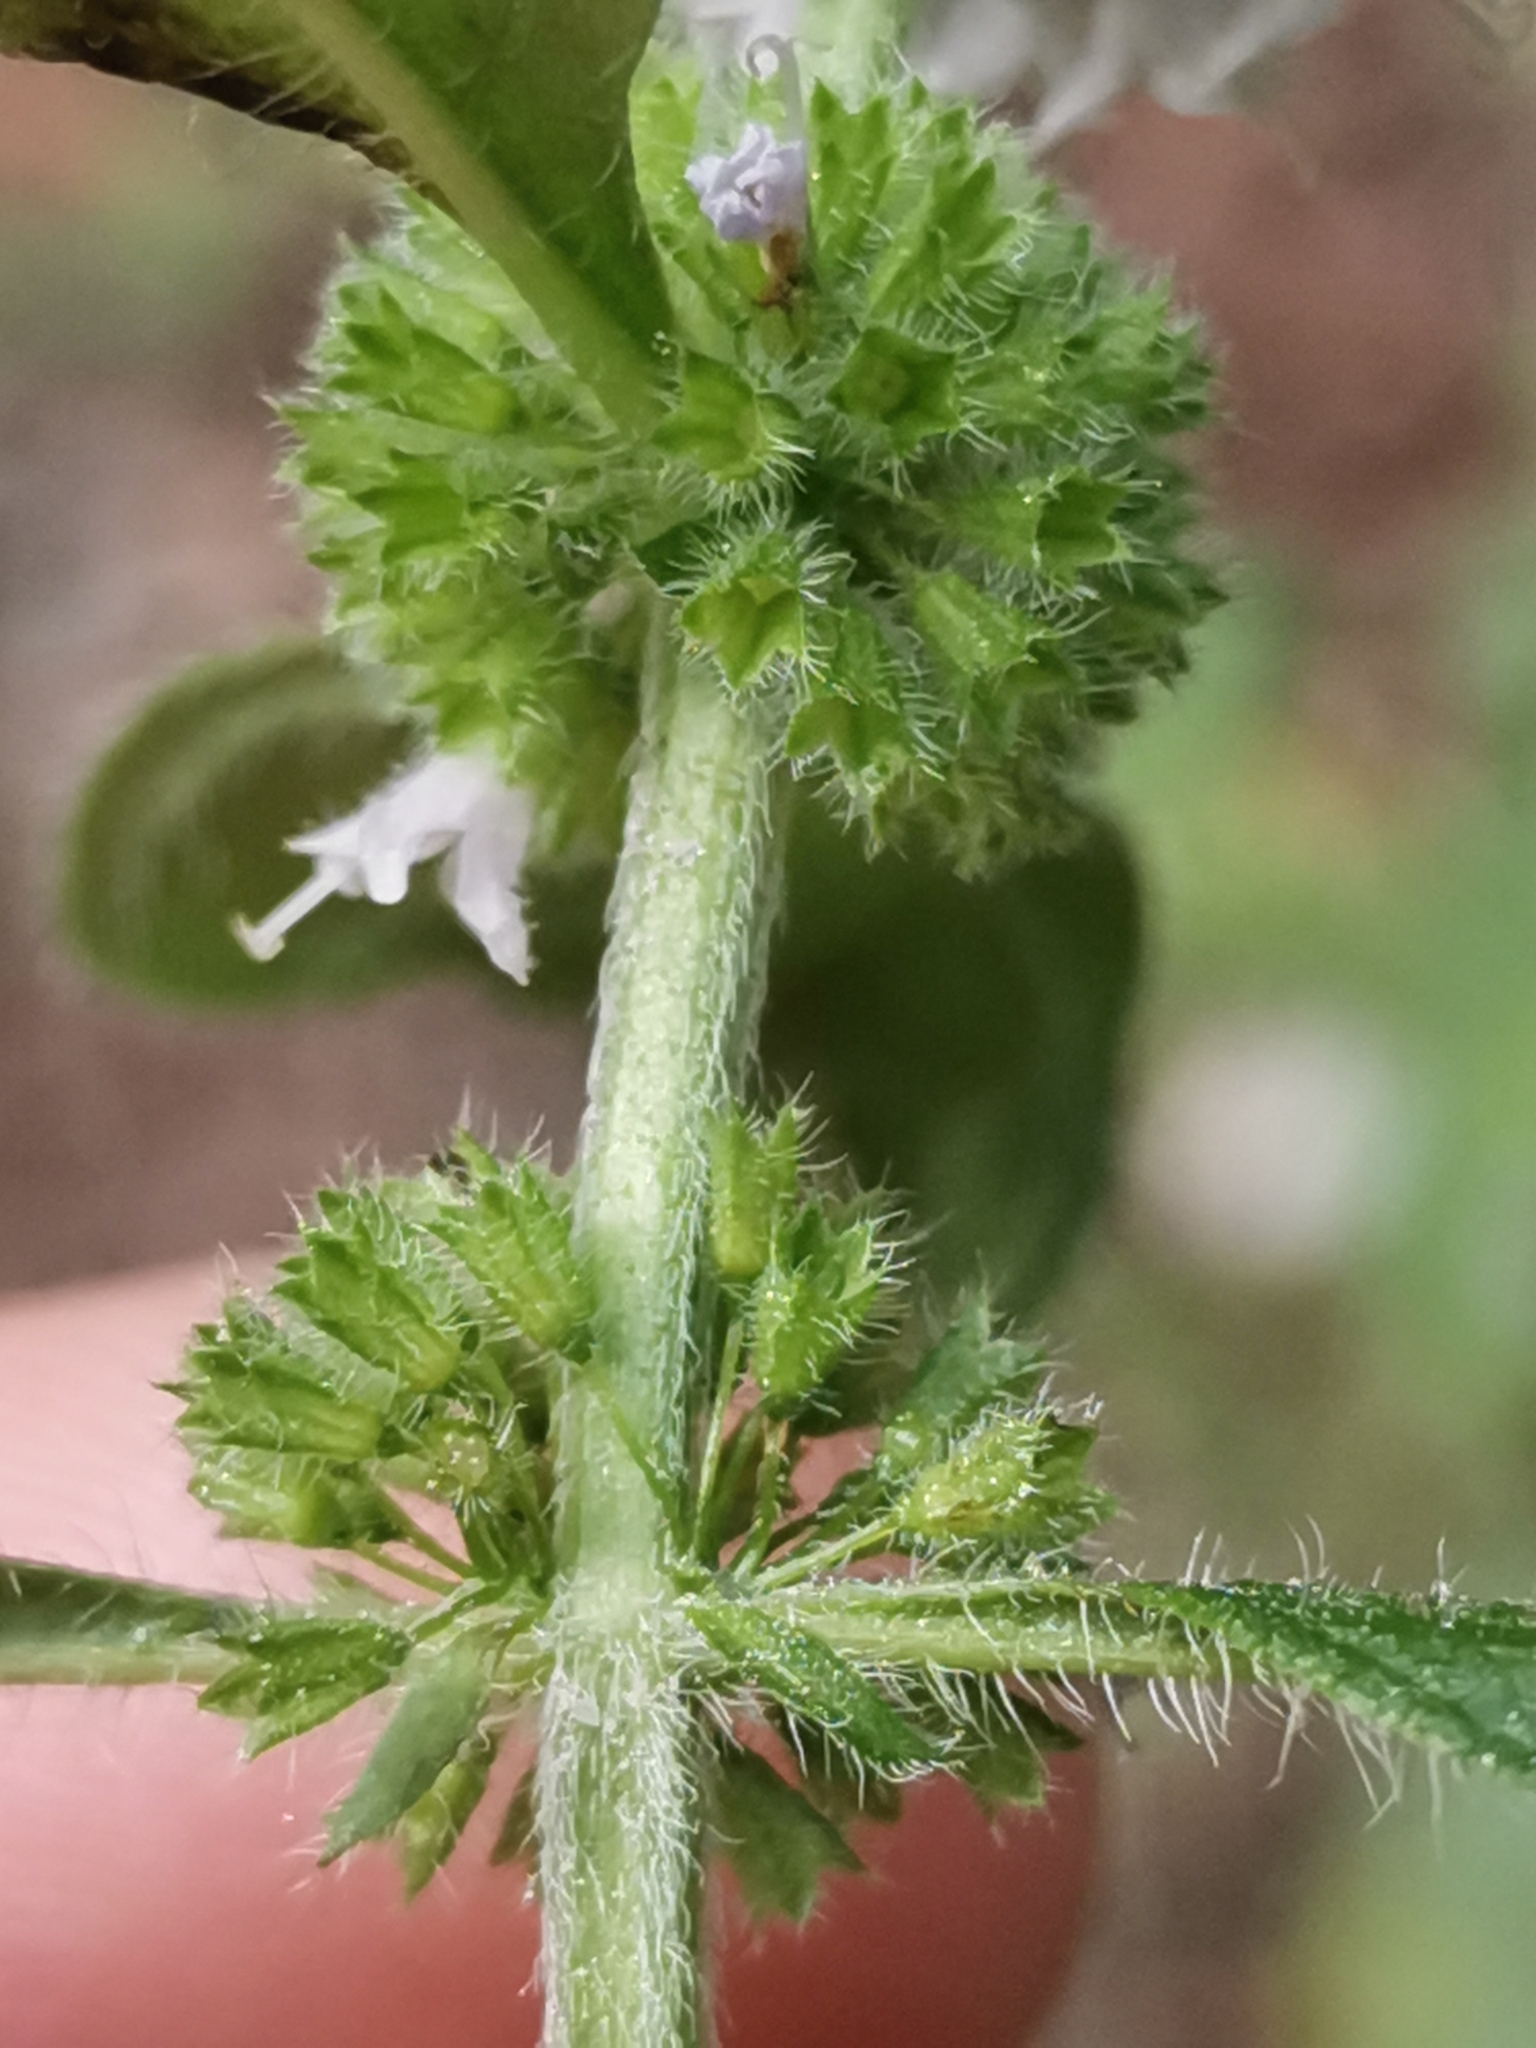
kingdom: Plantae
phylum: Tracheophyta
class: Magnoliopsida
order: Lamiales
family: Lamiaceae
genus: Mentha
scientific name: Mentha arvensis
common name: Corn mint
